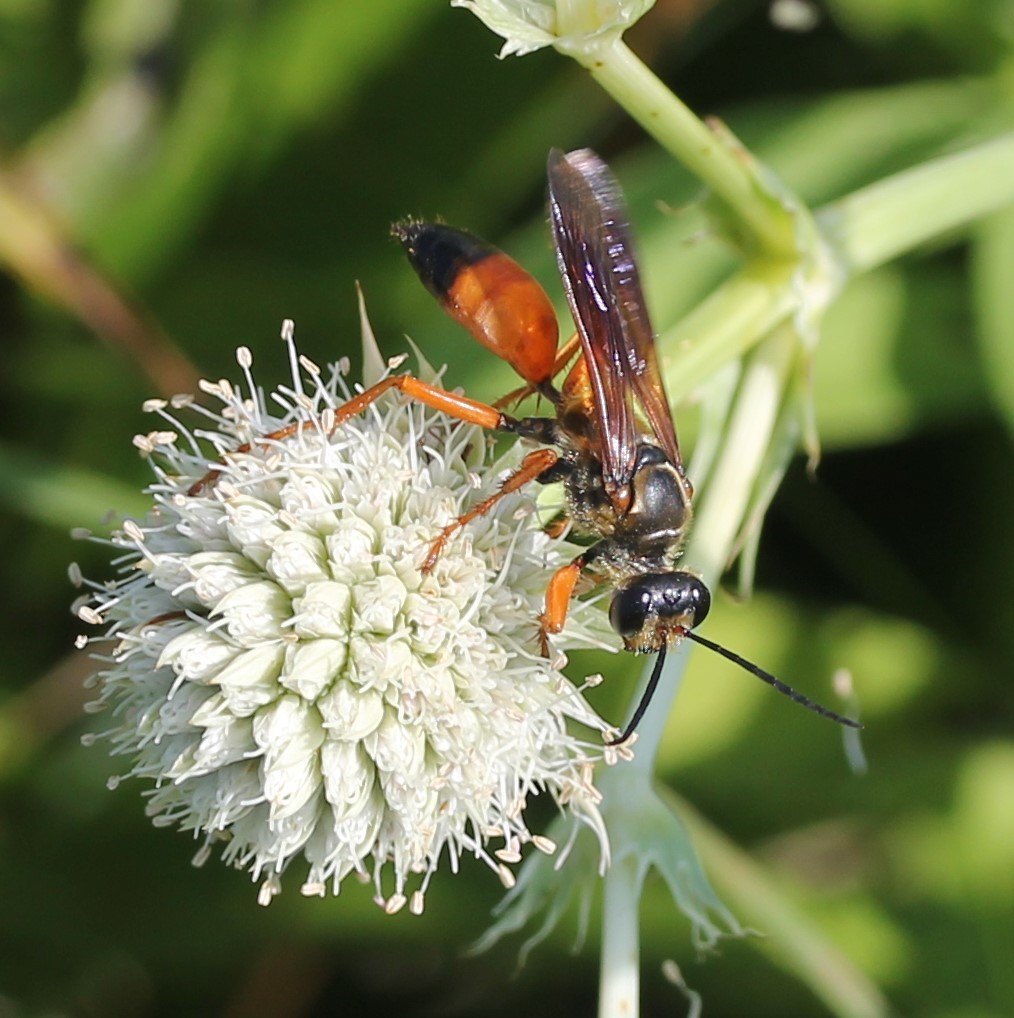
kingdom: Animalia
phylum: Arthropoda
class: Insecta
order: Hymenoptera
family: Sphecidae
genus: Sphex
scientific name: Sphex ichneumoneus
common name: Great golden digger wasp
